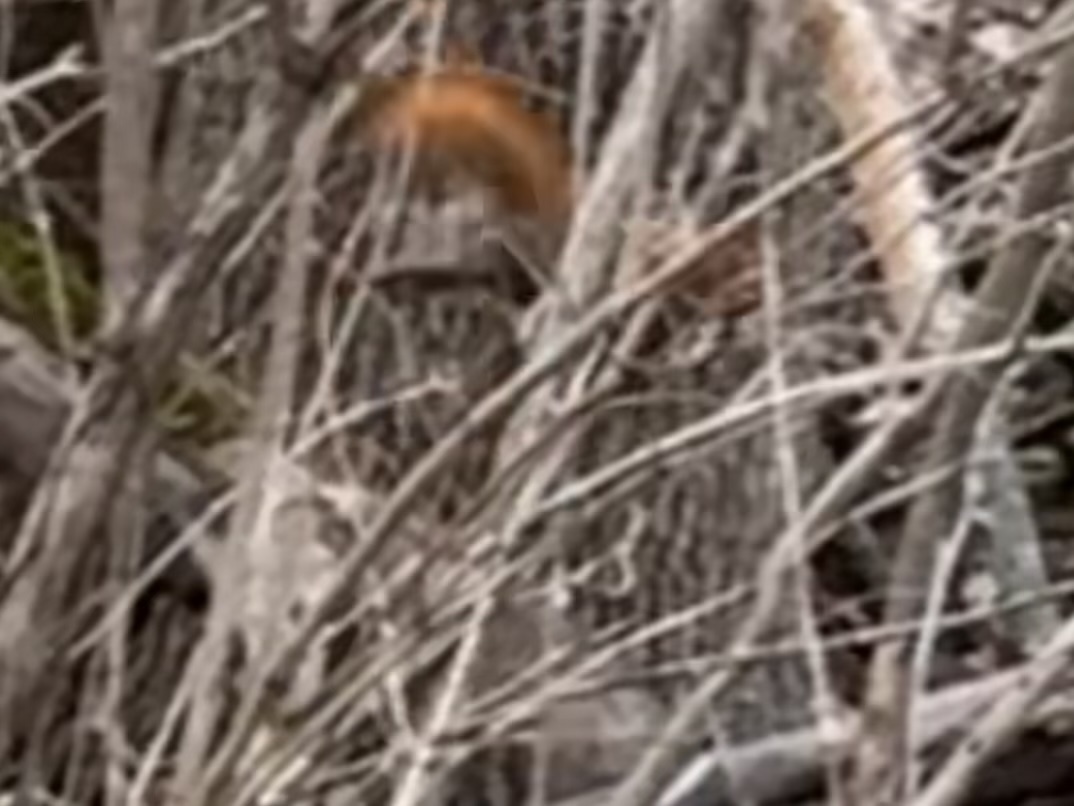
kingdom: Animalia
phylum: Chordata
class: Mammalia
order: Rodentia
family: Sciuridae
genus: Tamiasciurus
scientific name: Tamiasciurus hudsonicus
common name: Red squirrel
